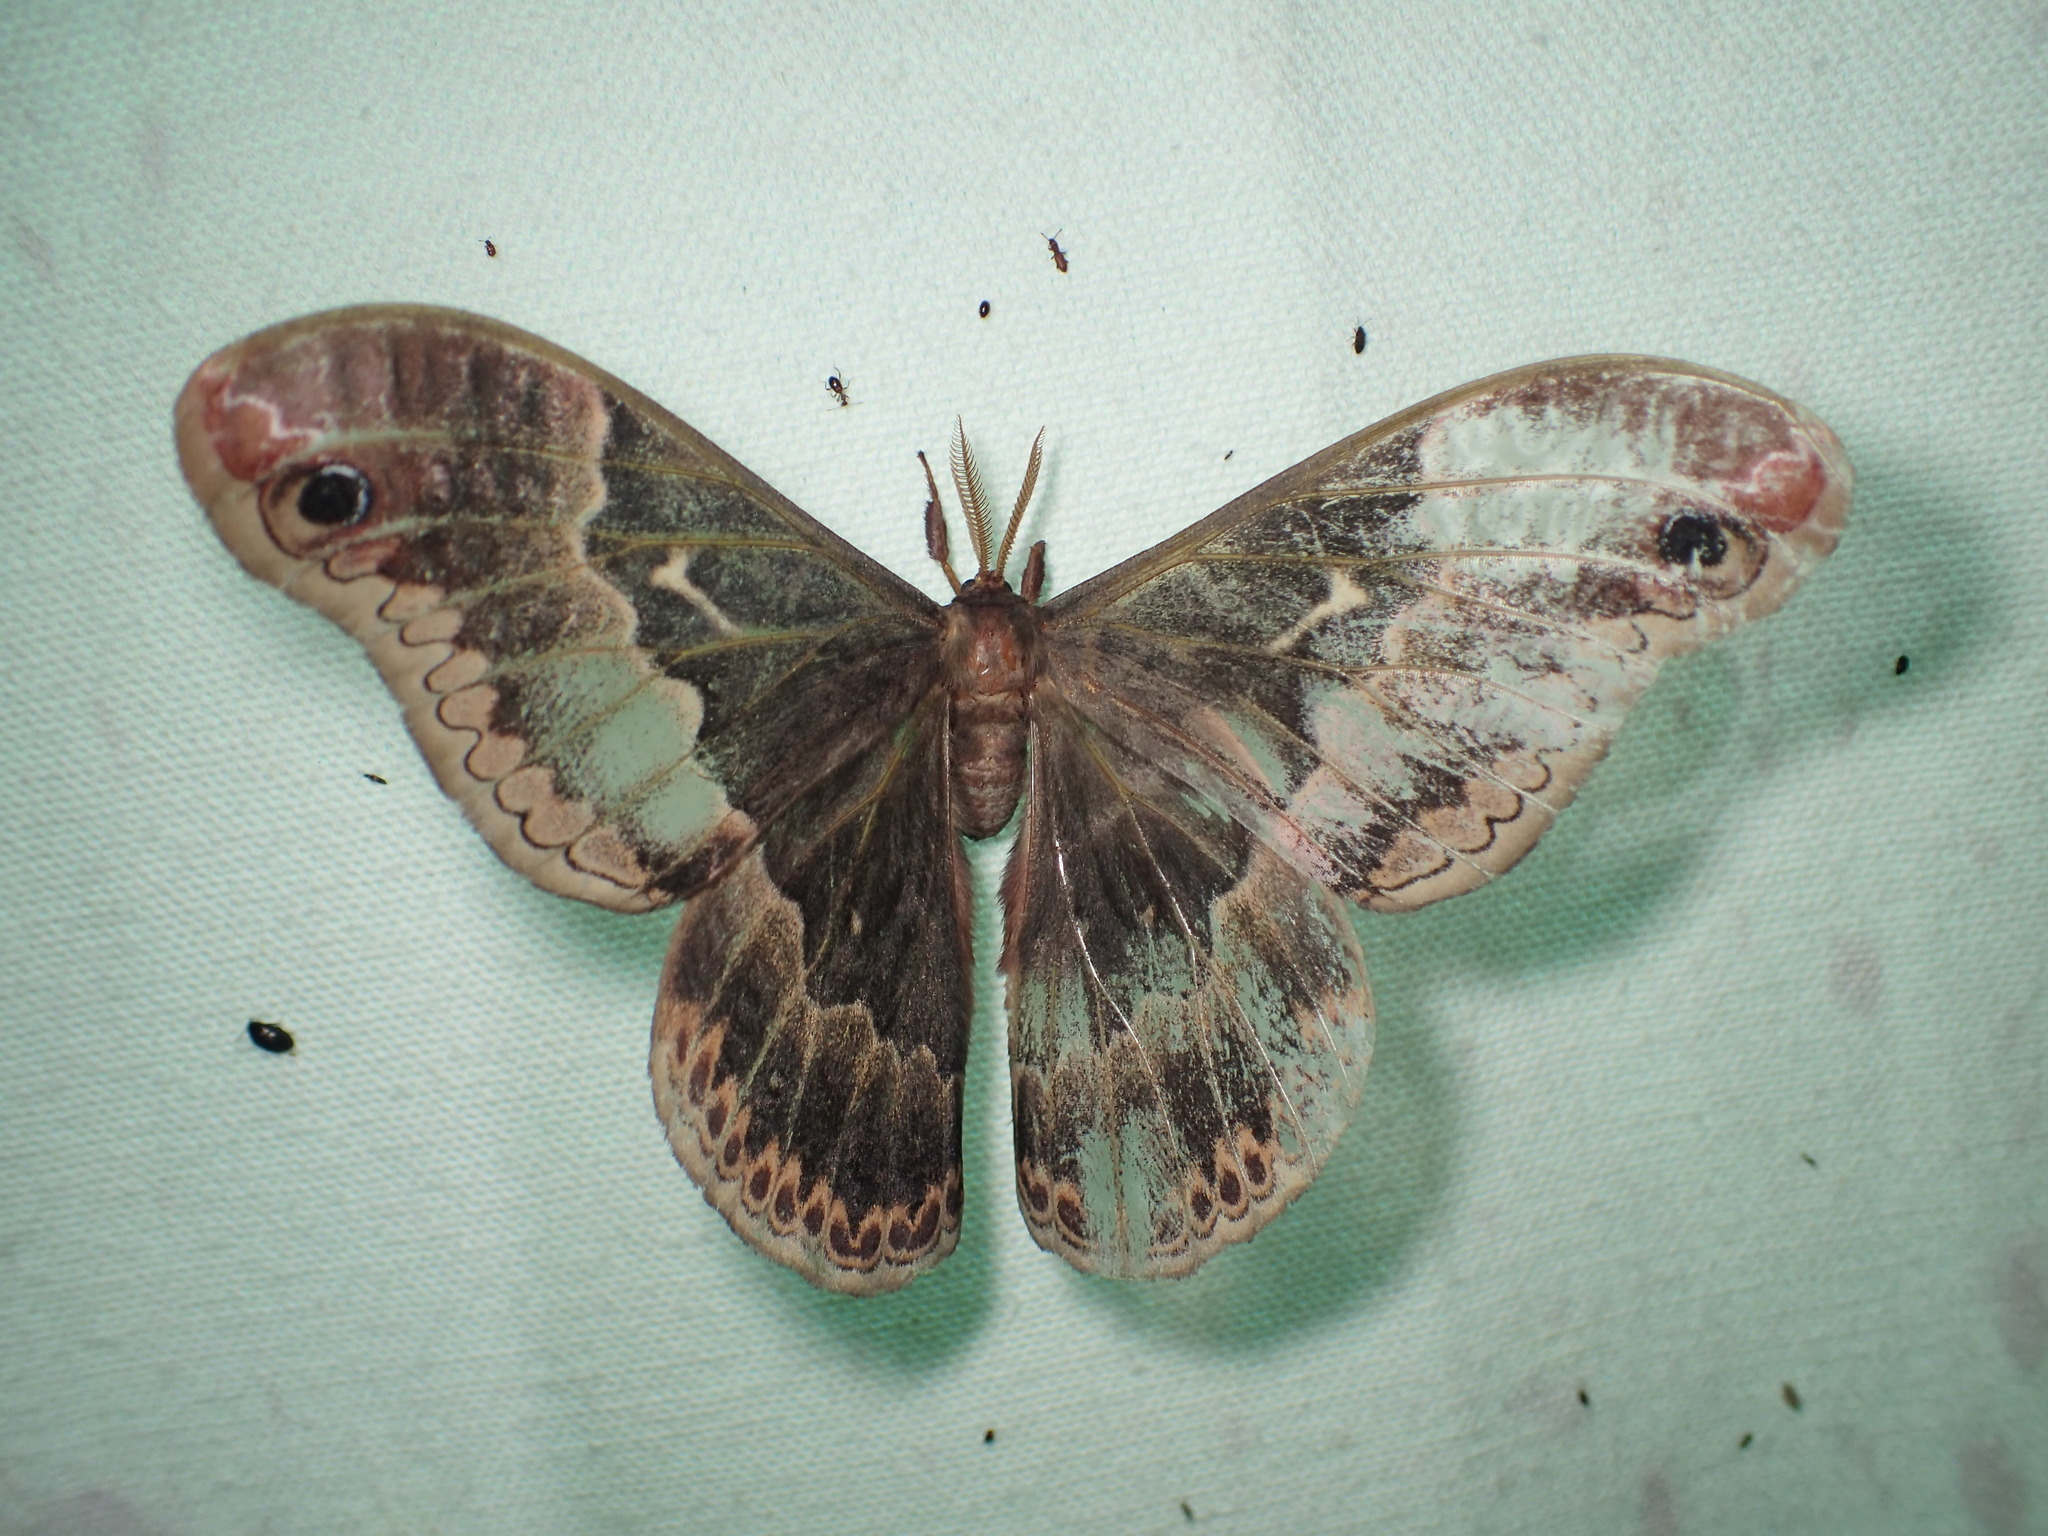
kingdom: Animalia
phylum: Arthropoda
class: Insecta
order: Lepidoptera
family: Saturniidae
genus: Callosamia
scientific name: Callosamia angulifera
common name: Tulip tree silkmoth
